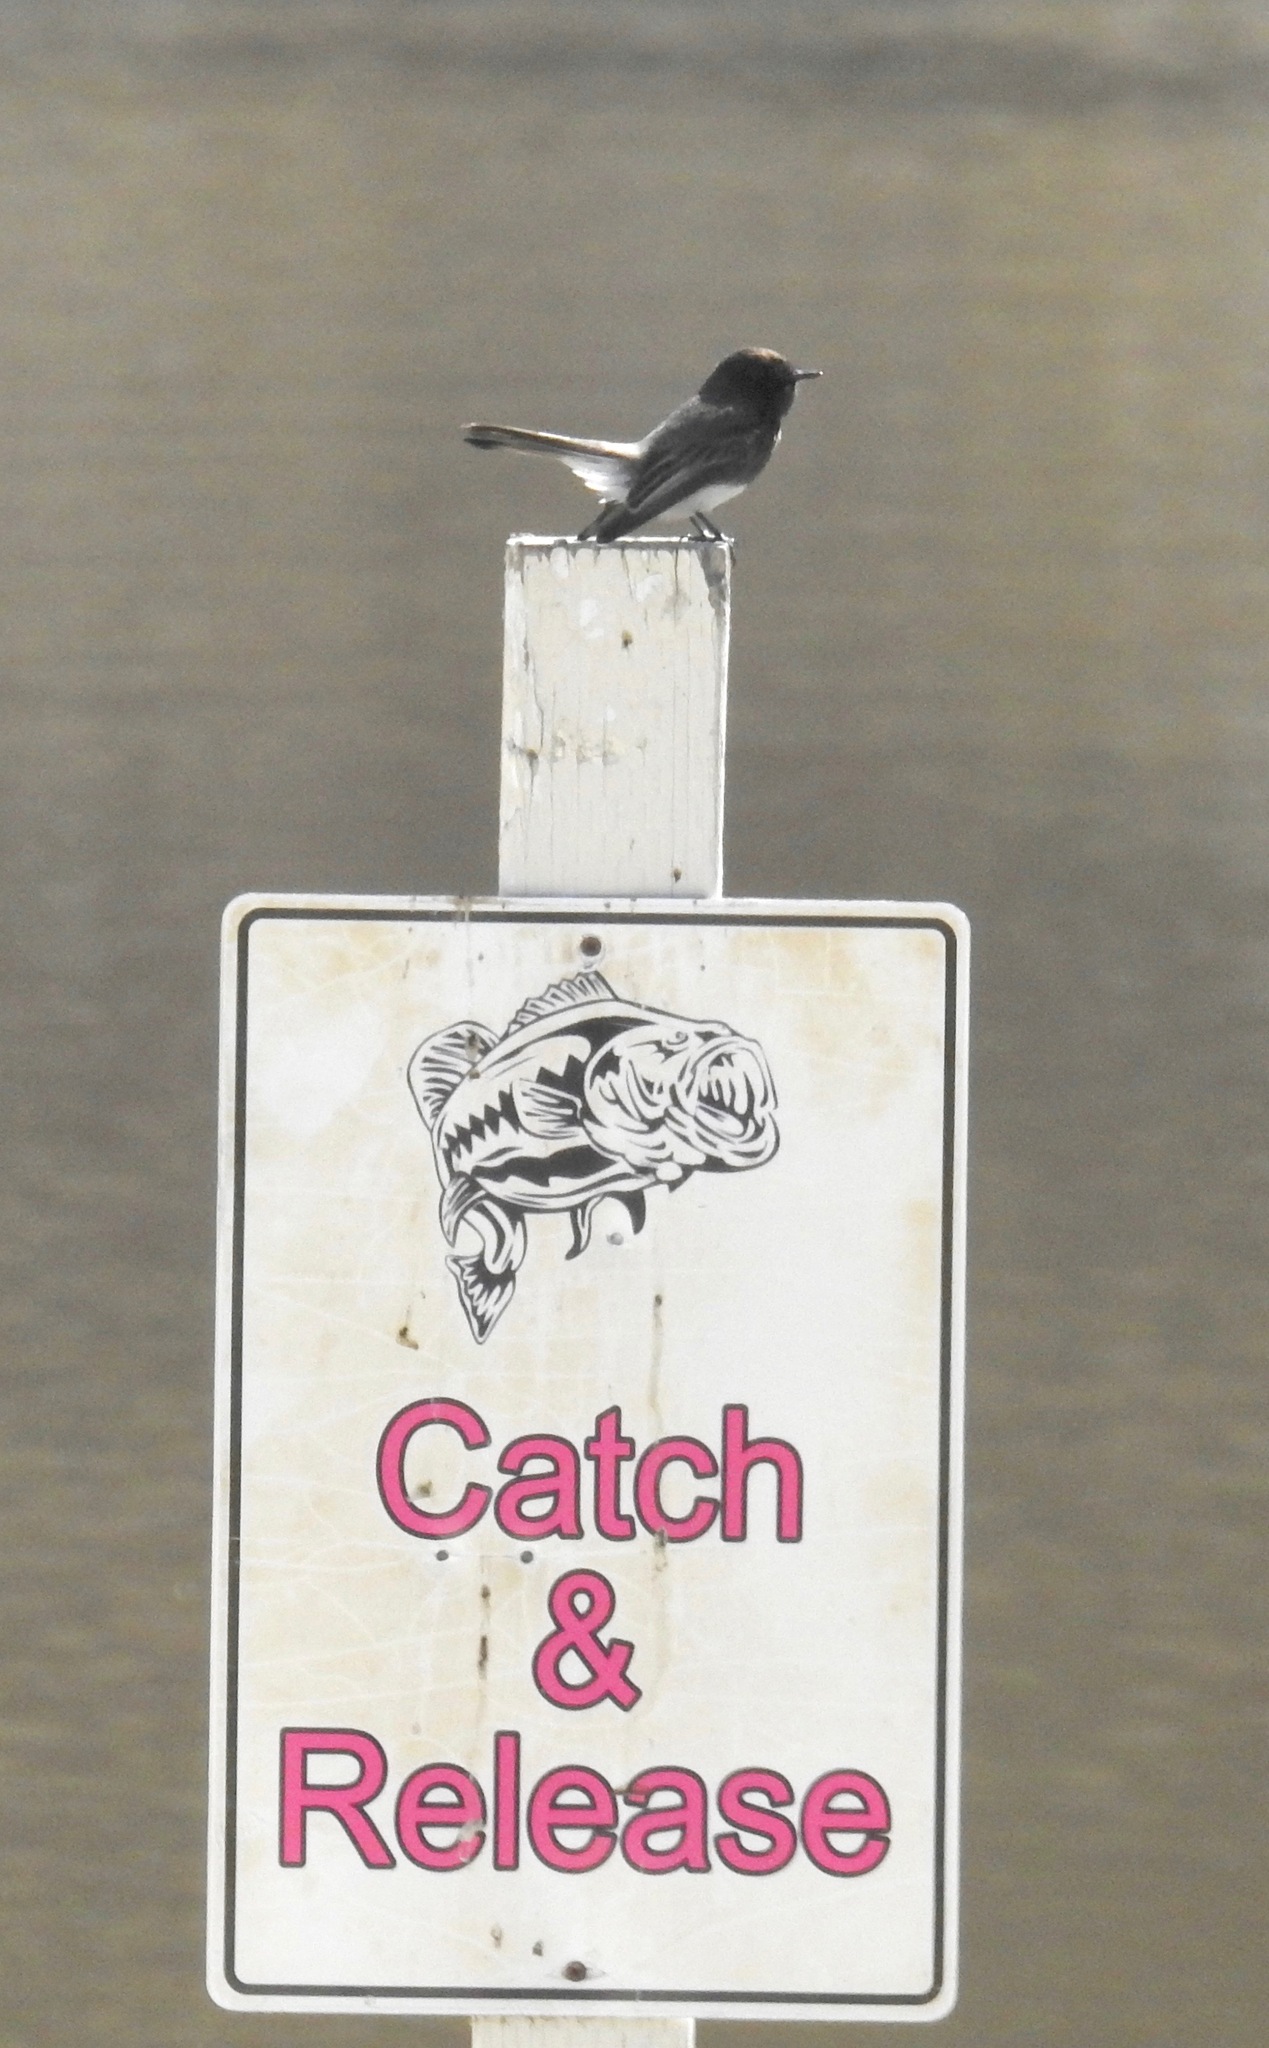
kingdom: Animalia
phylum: Chordata
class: Aves
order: Passeriformes
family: Tyrannidae
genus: Sayornis
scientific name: Sayornis nigricans
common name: Black phoebe
